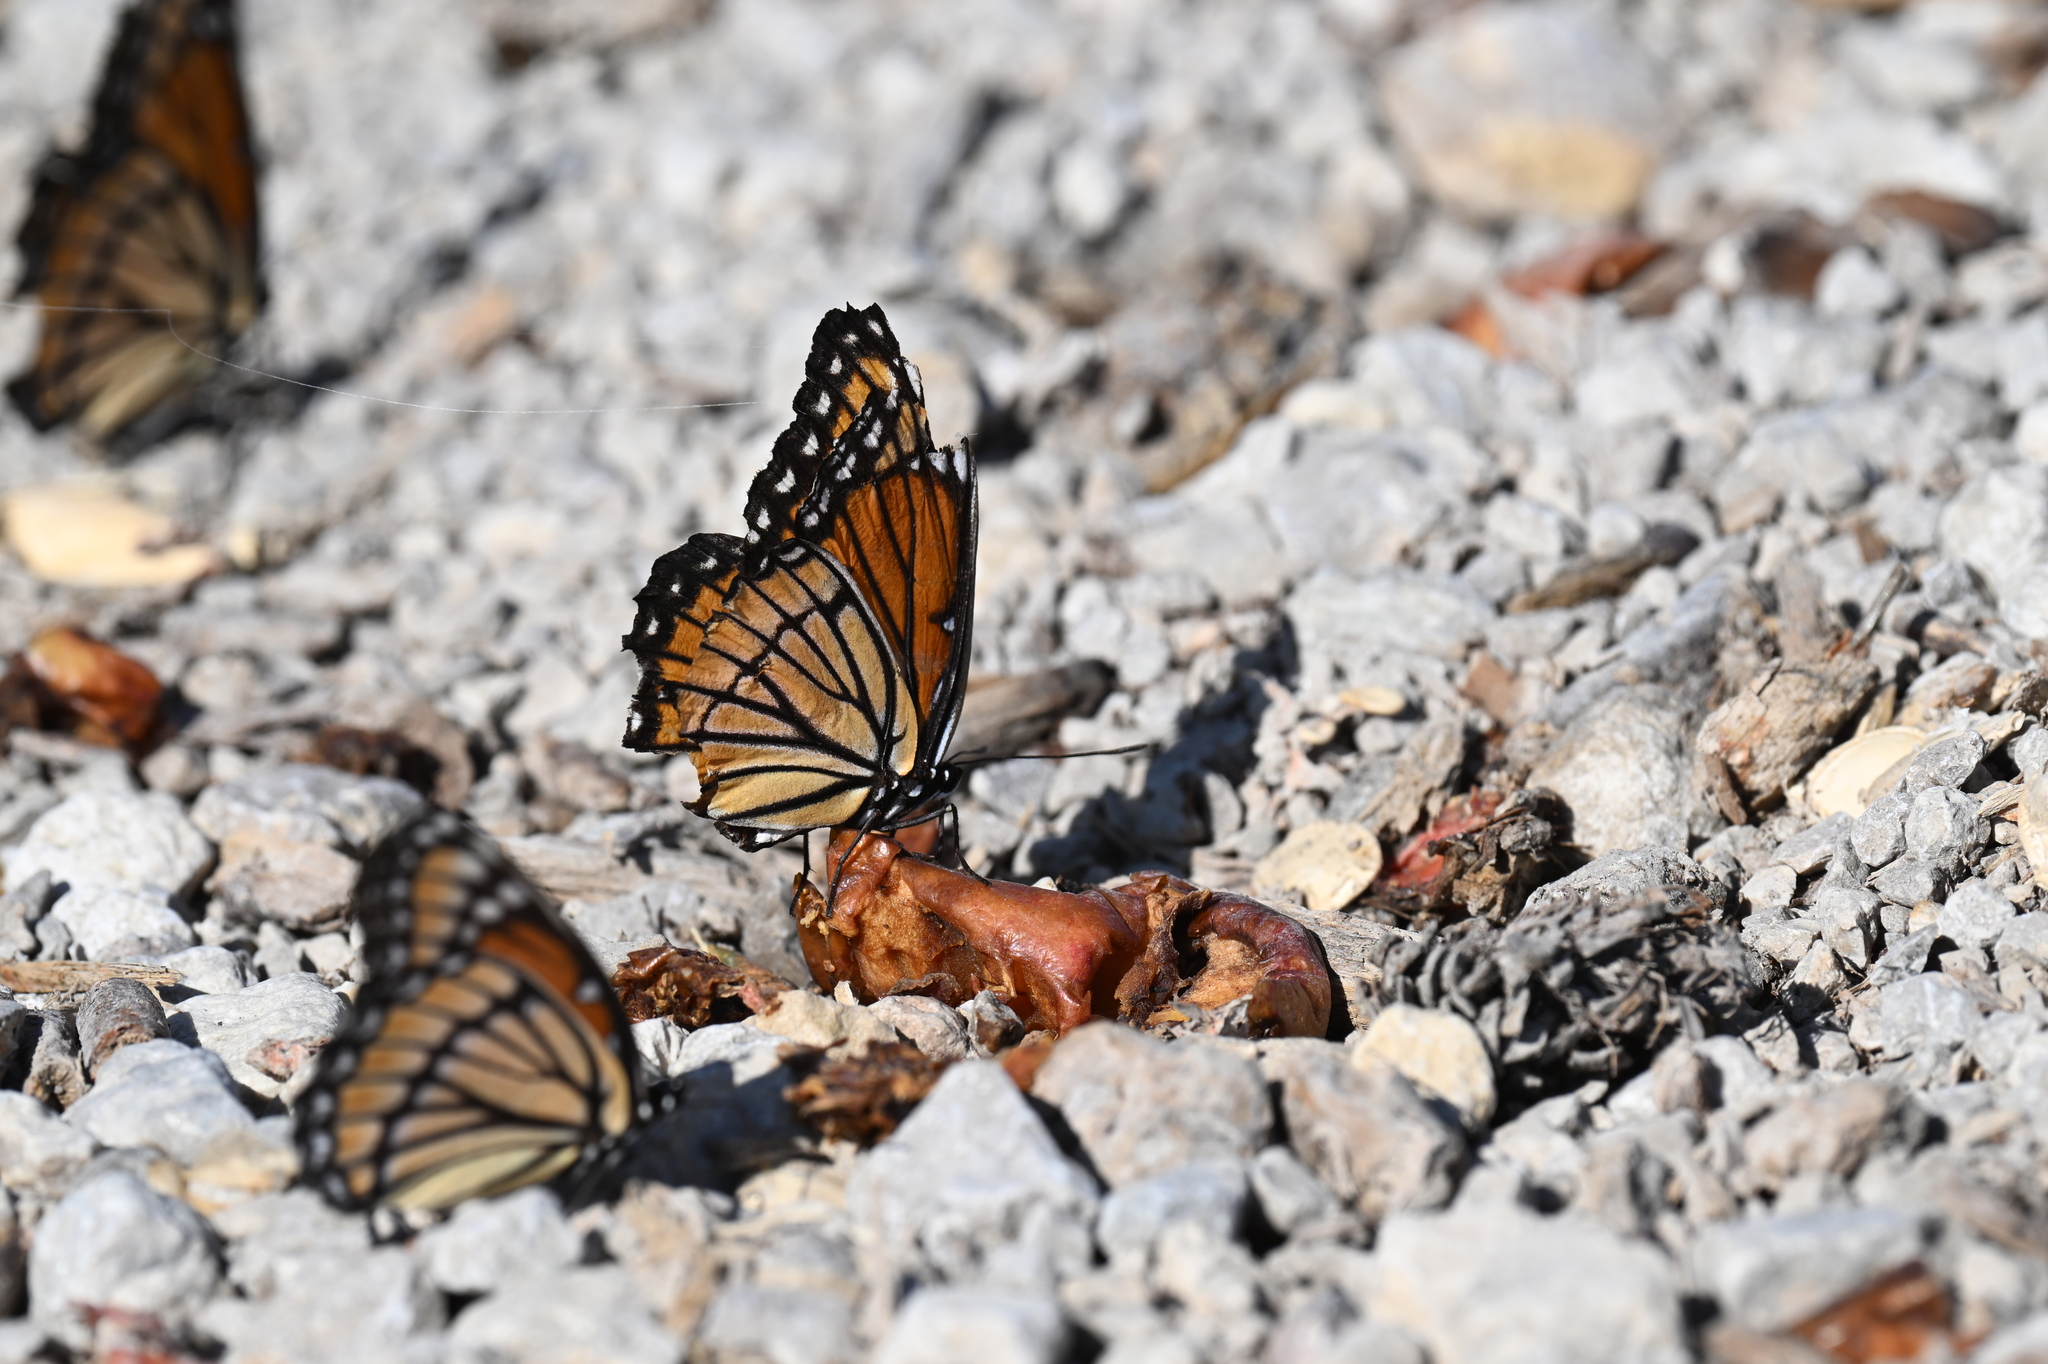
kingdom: Animalia
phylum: Arthropoda
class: Insecta
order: Lepidoptera
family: Nymphalidae
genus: Limenitis
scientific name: Limenitis archippus
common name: Viceroy
